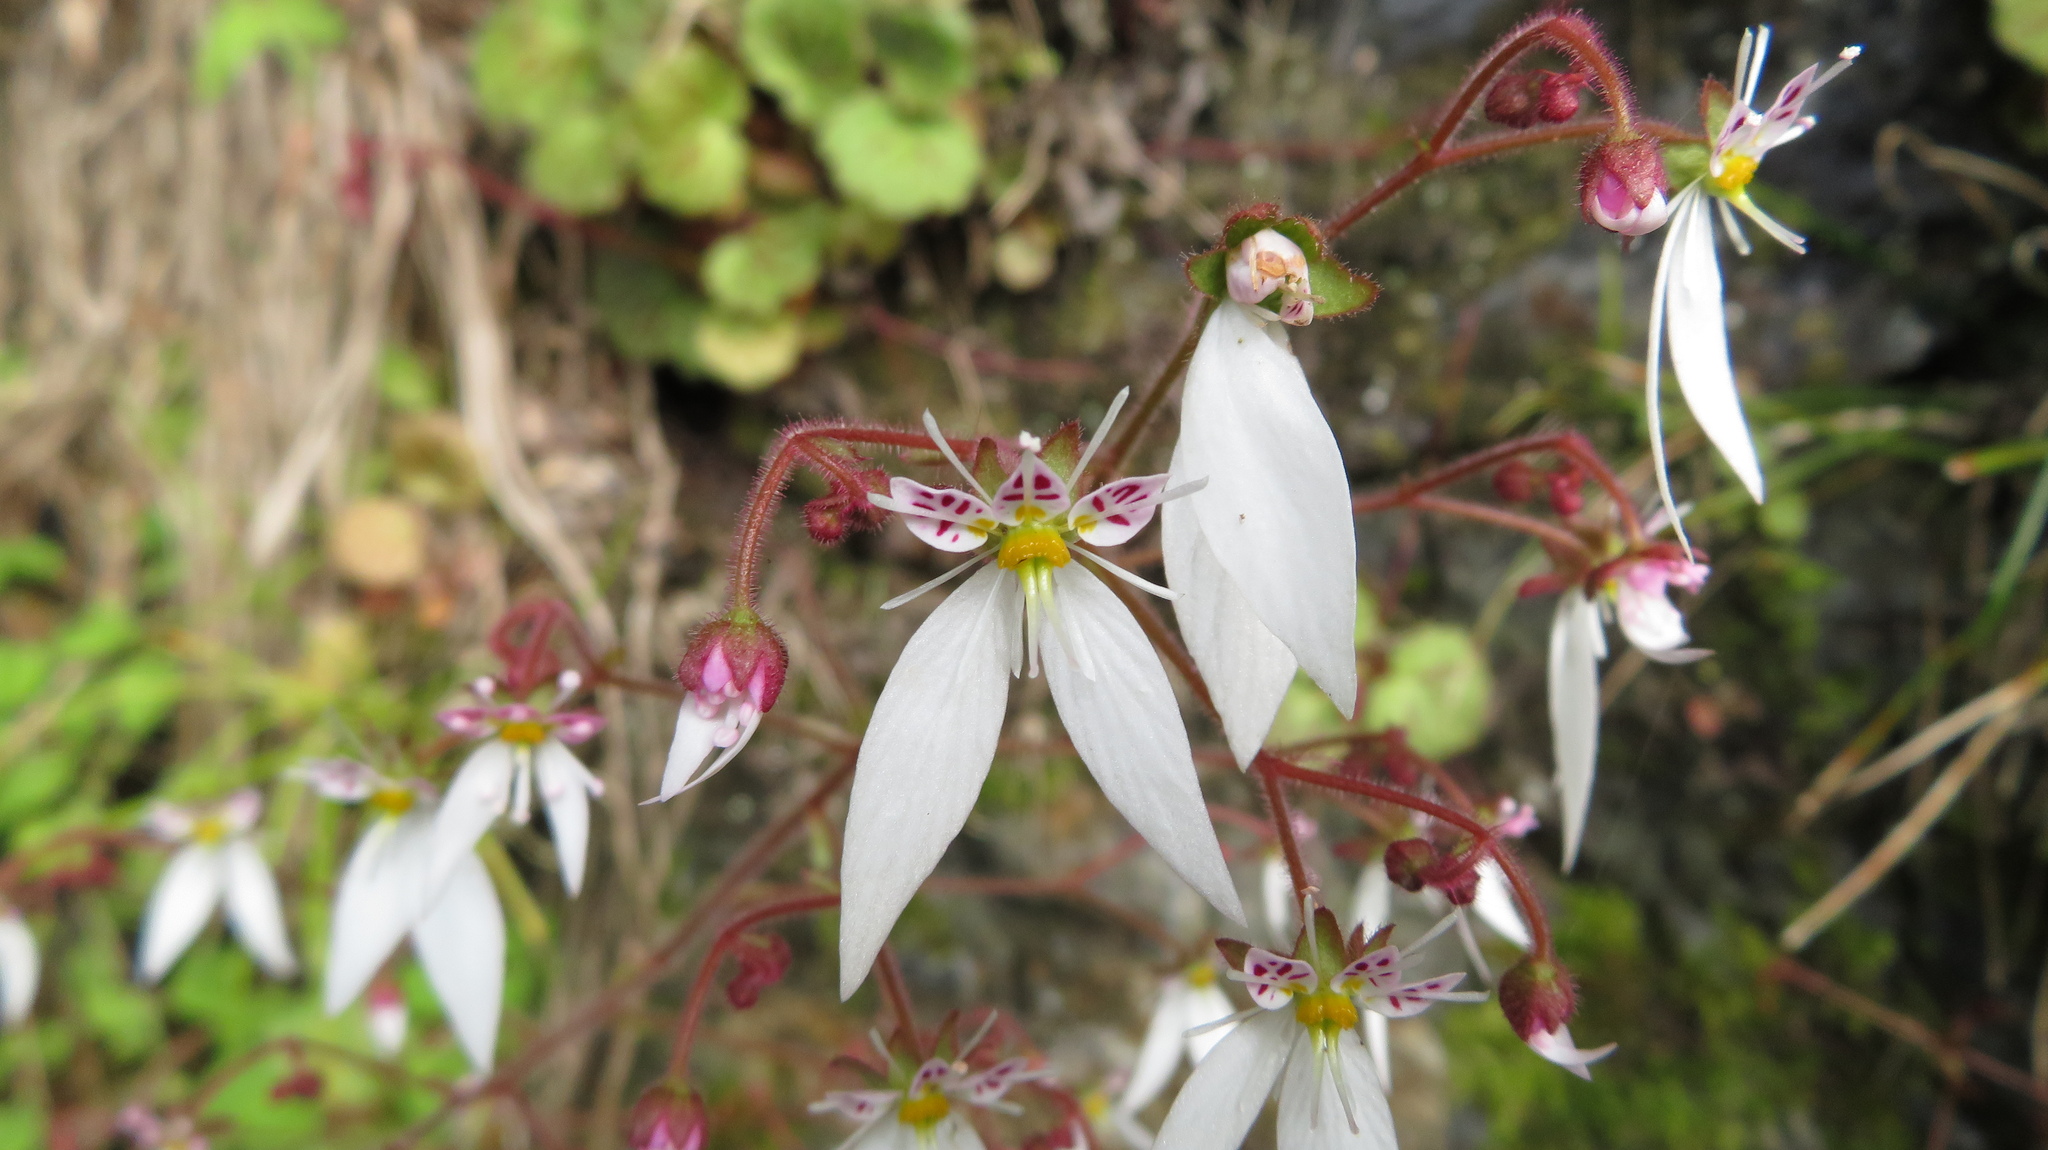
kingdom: Plantae
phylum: Tracheophyta
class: Magnoliopsida
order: Saxifragales
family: Saxifragaceae
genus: Saxifraga
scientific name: Saxifraga stolonifera
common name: Creeping saxifrage
